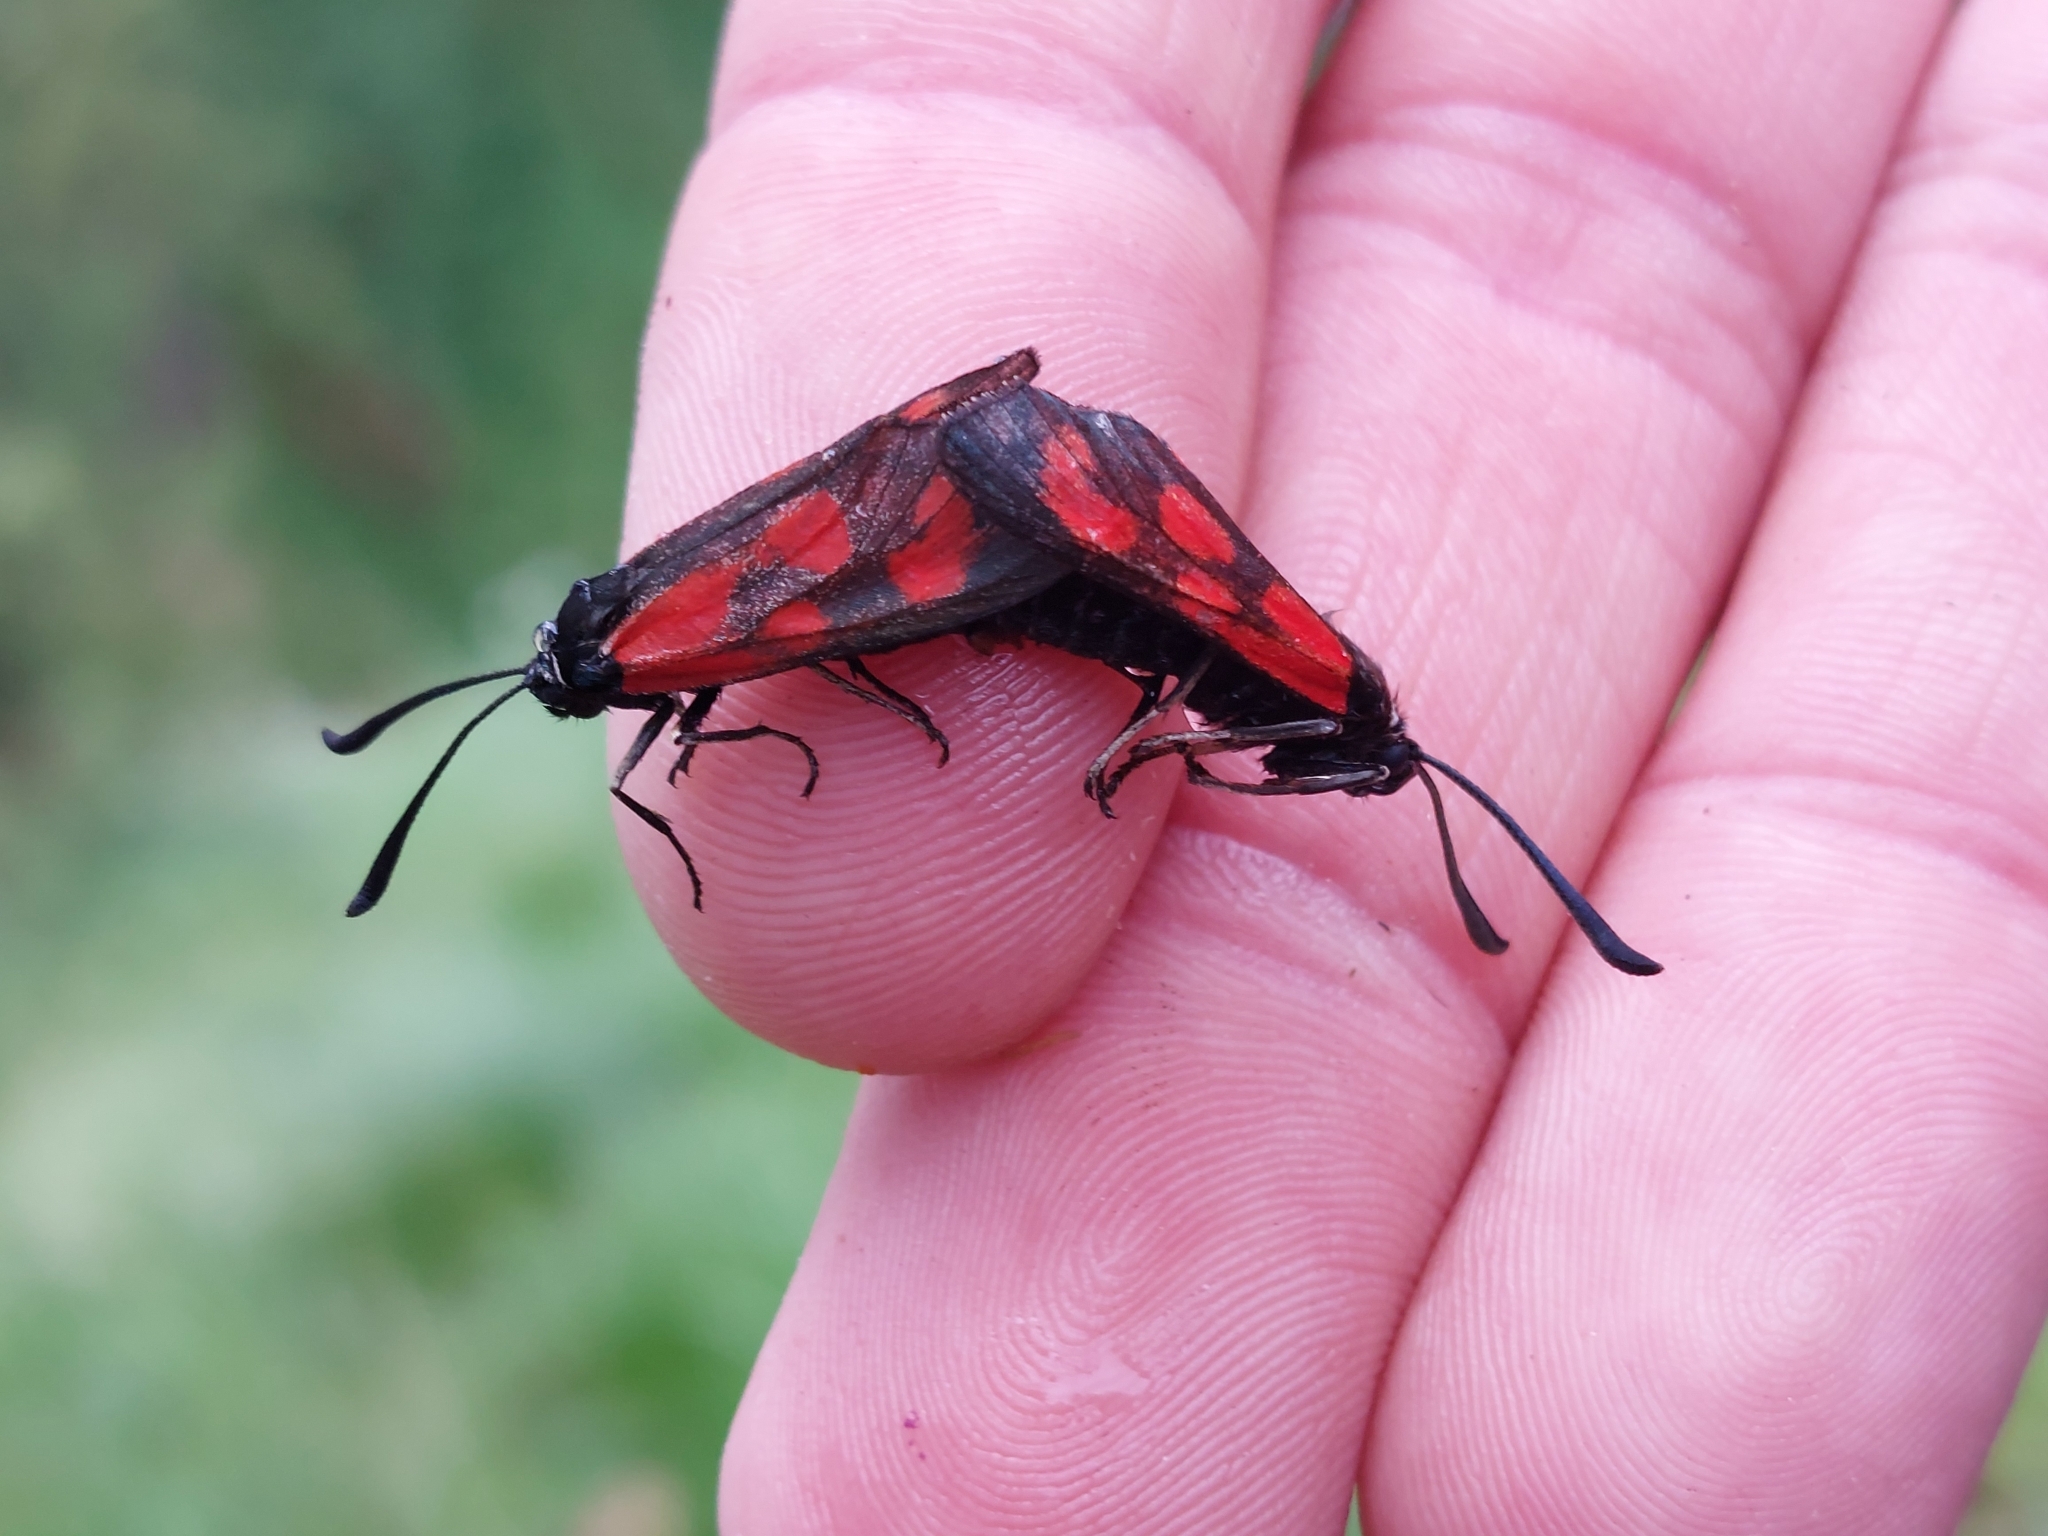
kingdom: Animalia
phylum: Arthropoda
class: Insecta
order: Lepidoptera
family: Zygaenidae
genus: Zygaena
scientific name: Zygaena loti
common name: Slender scotch burnet
